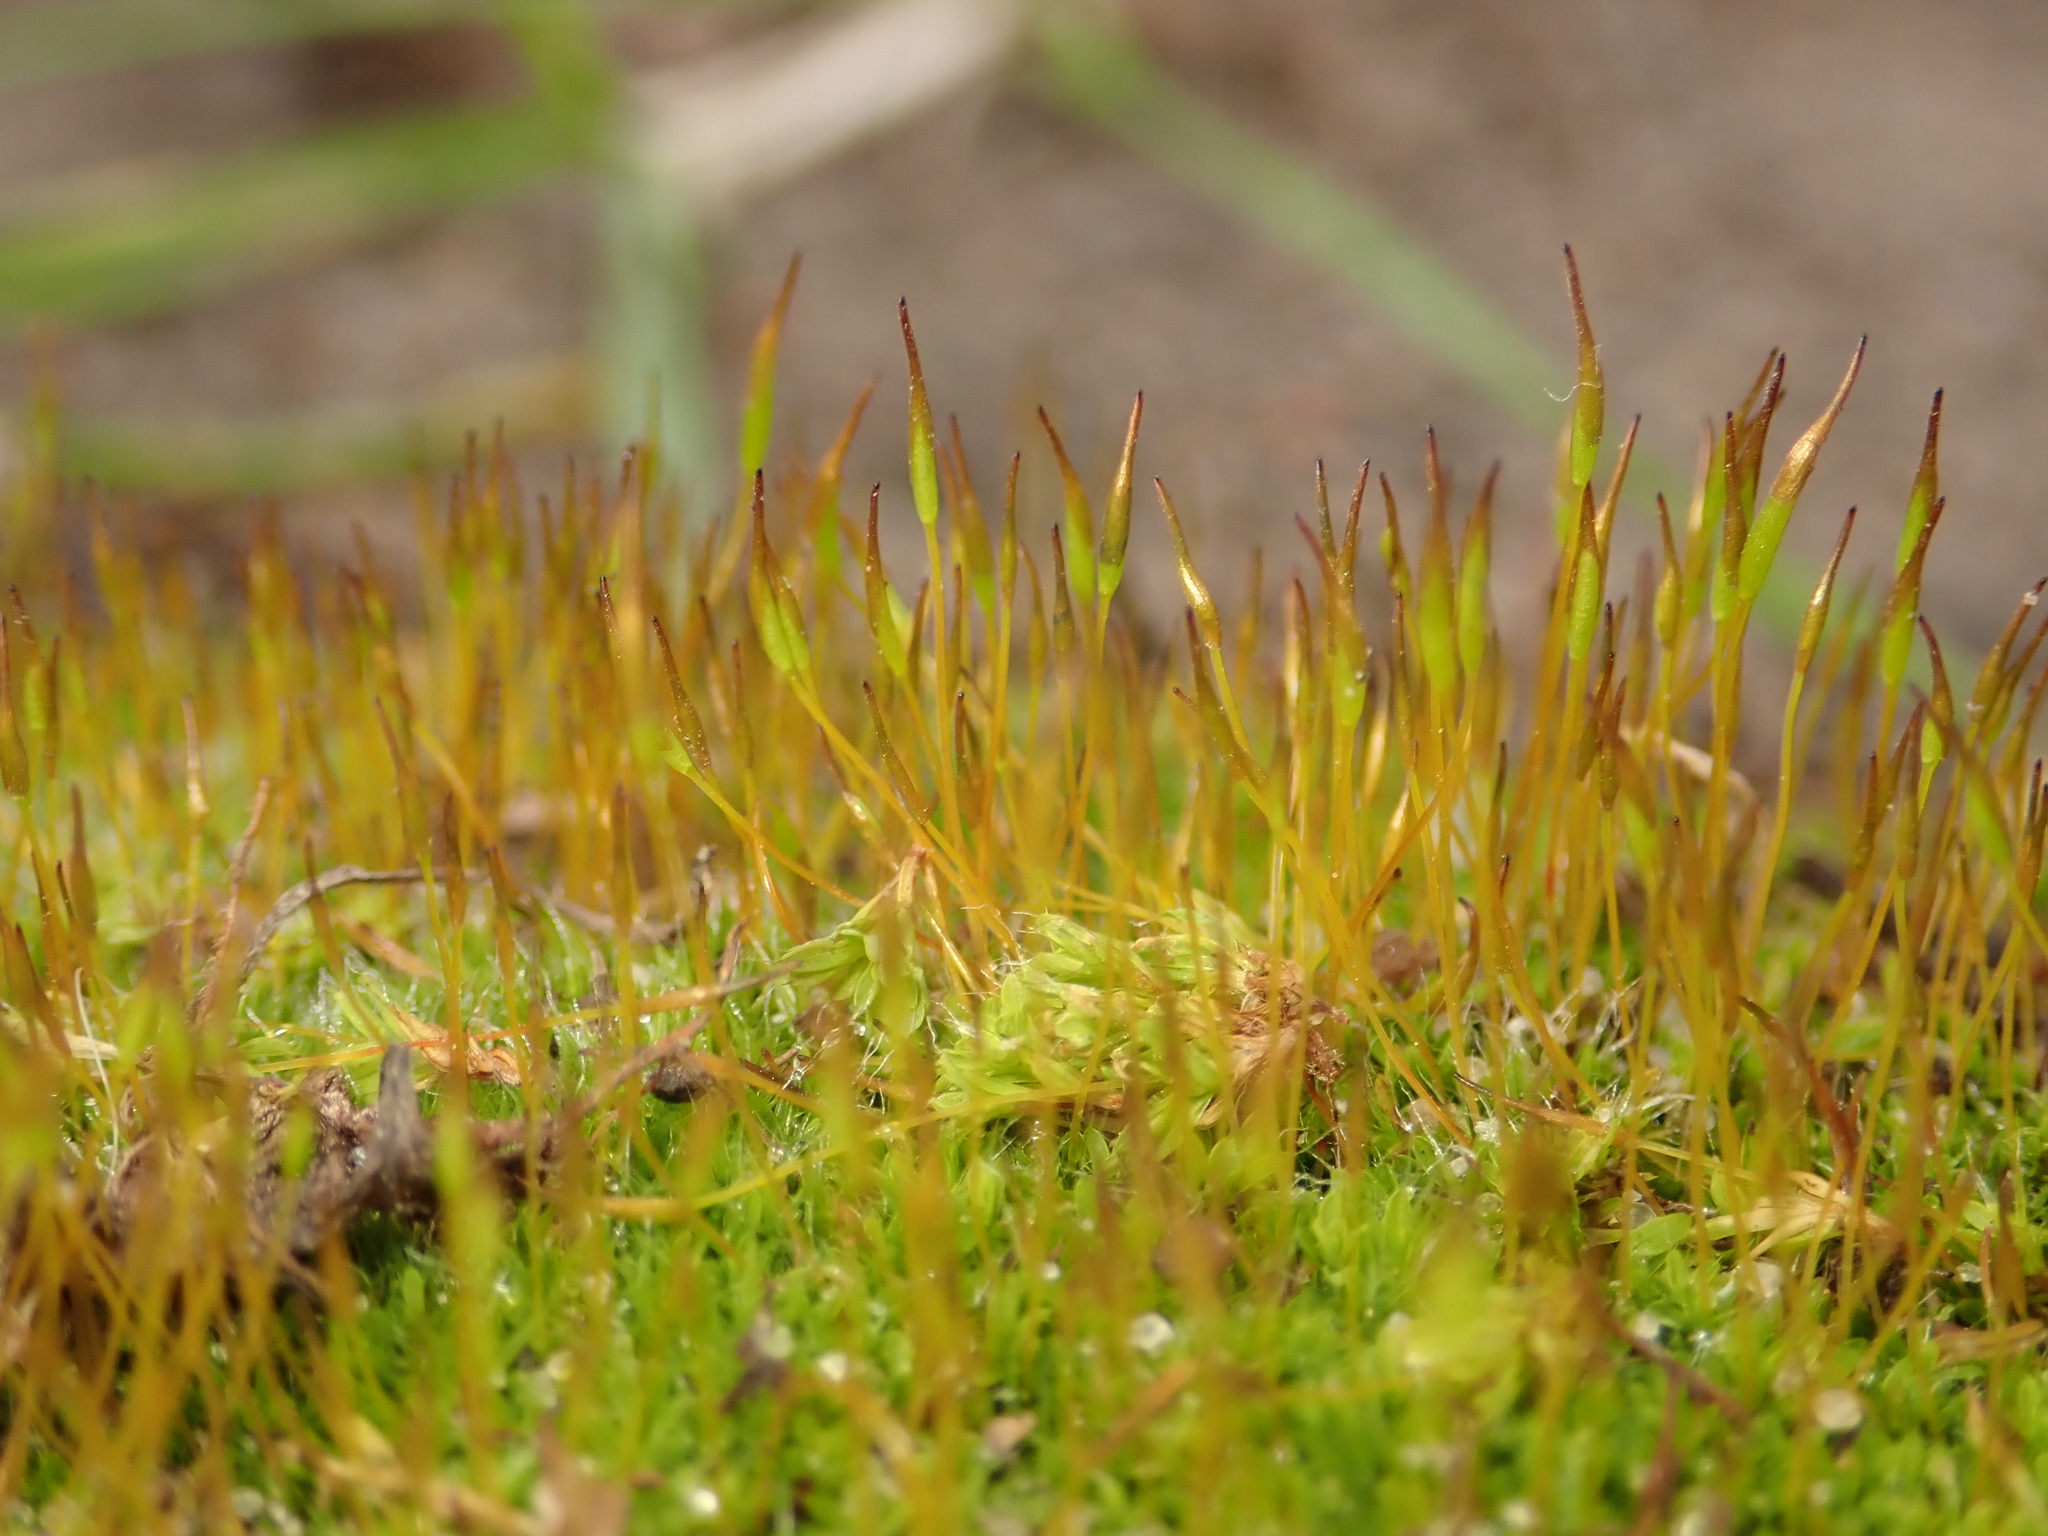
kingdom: Plantae
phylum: Bryophyta
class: Bryopsida
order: Pottiales
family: Pottiaceae
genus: Tortula
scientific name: Tortula muralis
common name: Wall screw-moss
